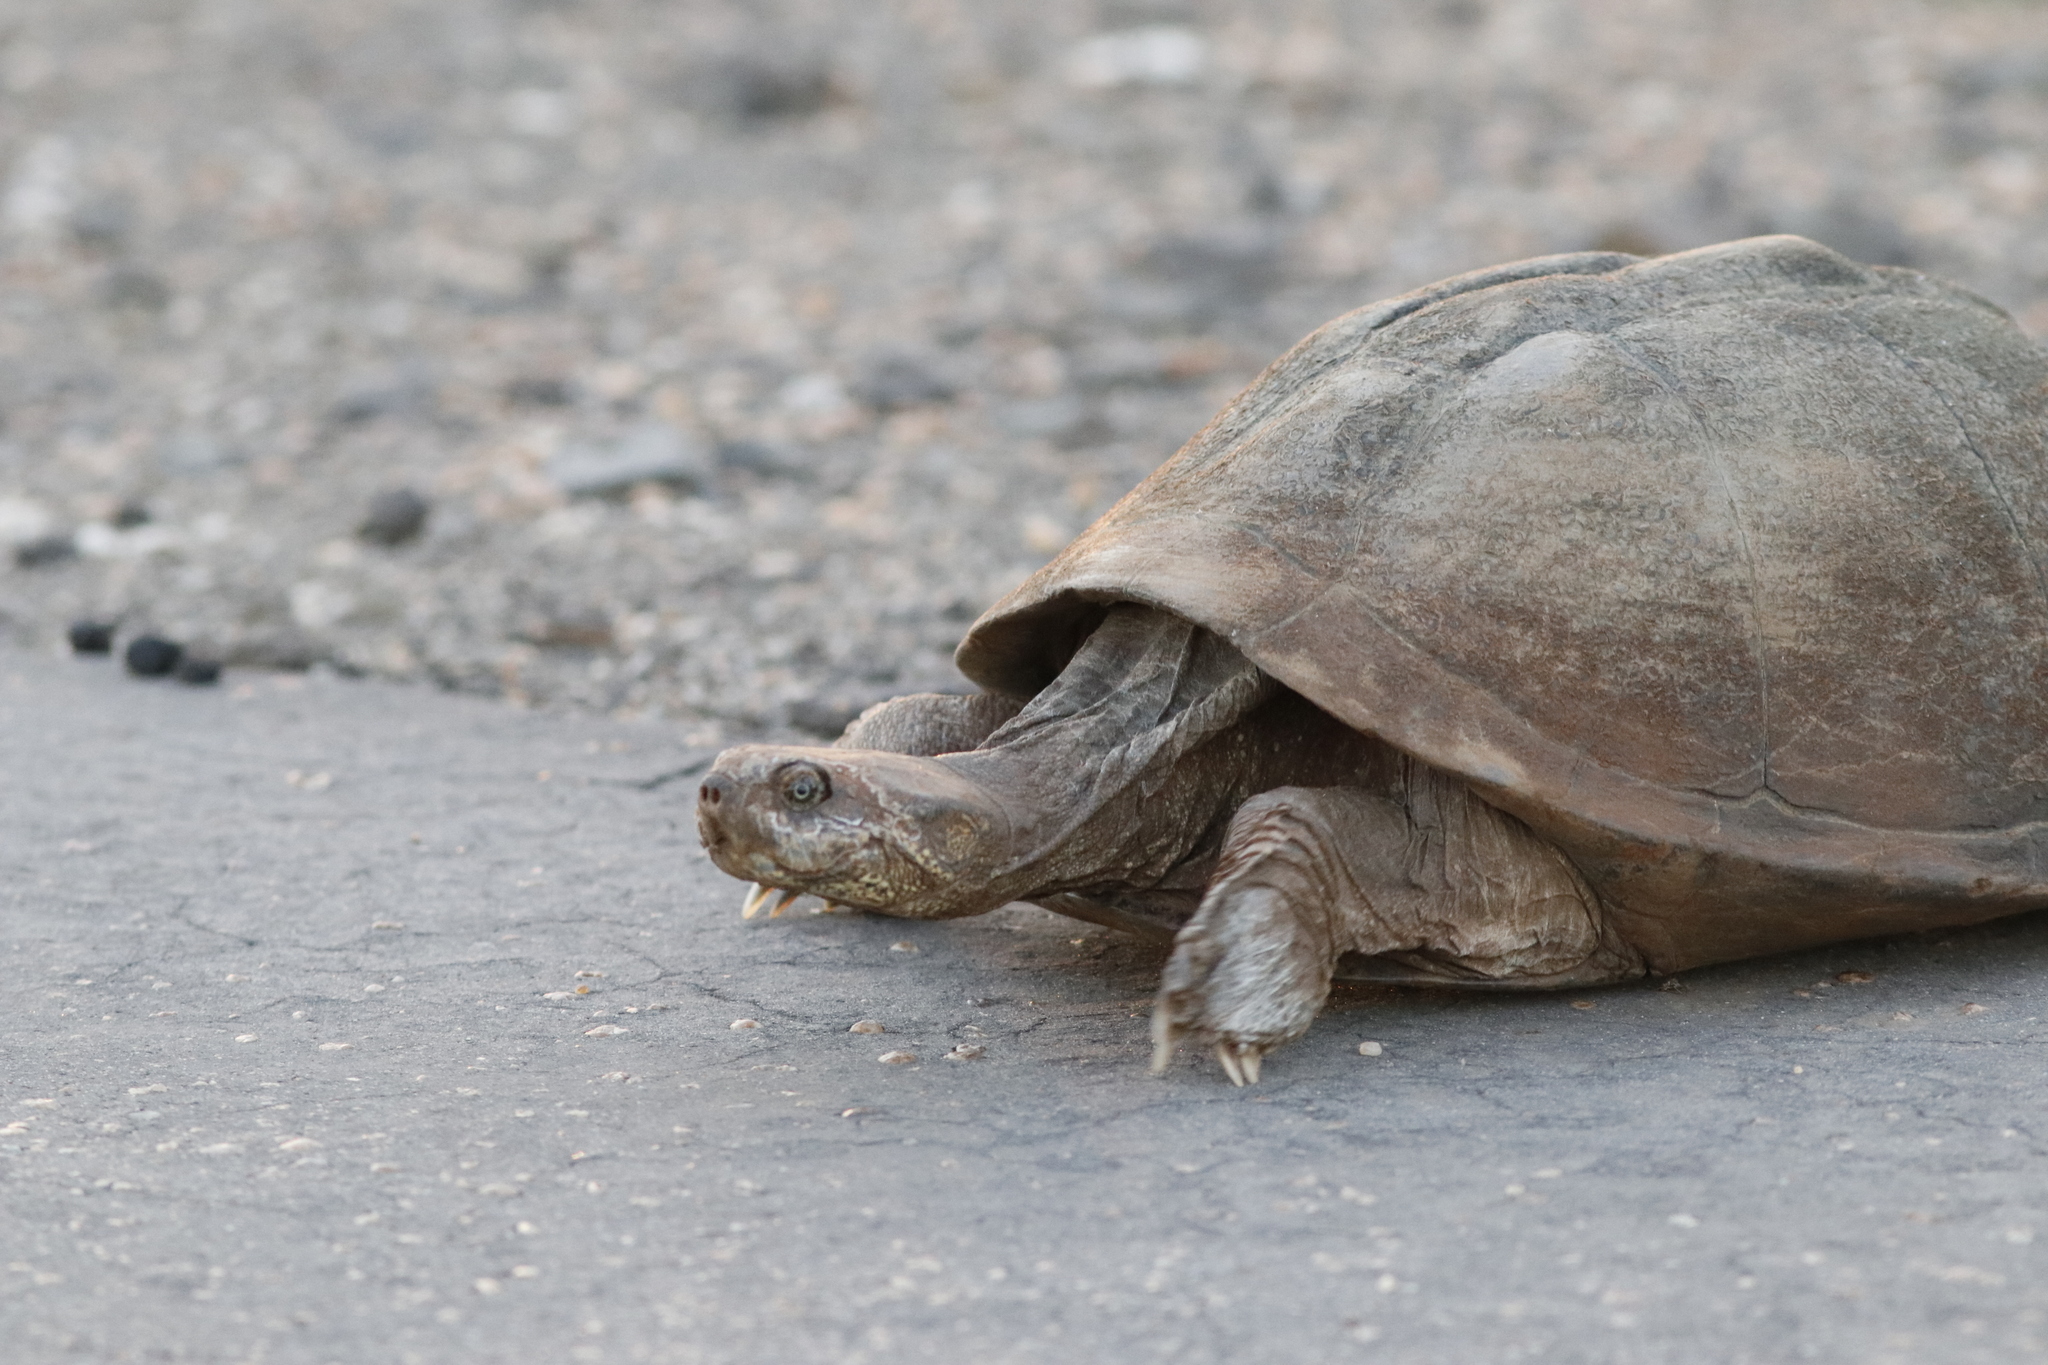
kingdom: Animalia
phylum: Chordata
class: Testudines
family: Pelomedusidae
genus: Pelusios
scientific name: Pelusios sinuatus
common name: Serrated hinged terrapin
